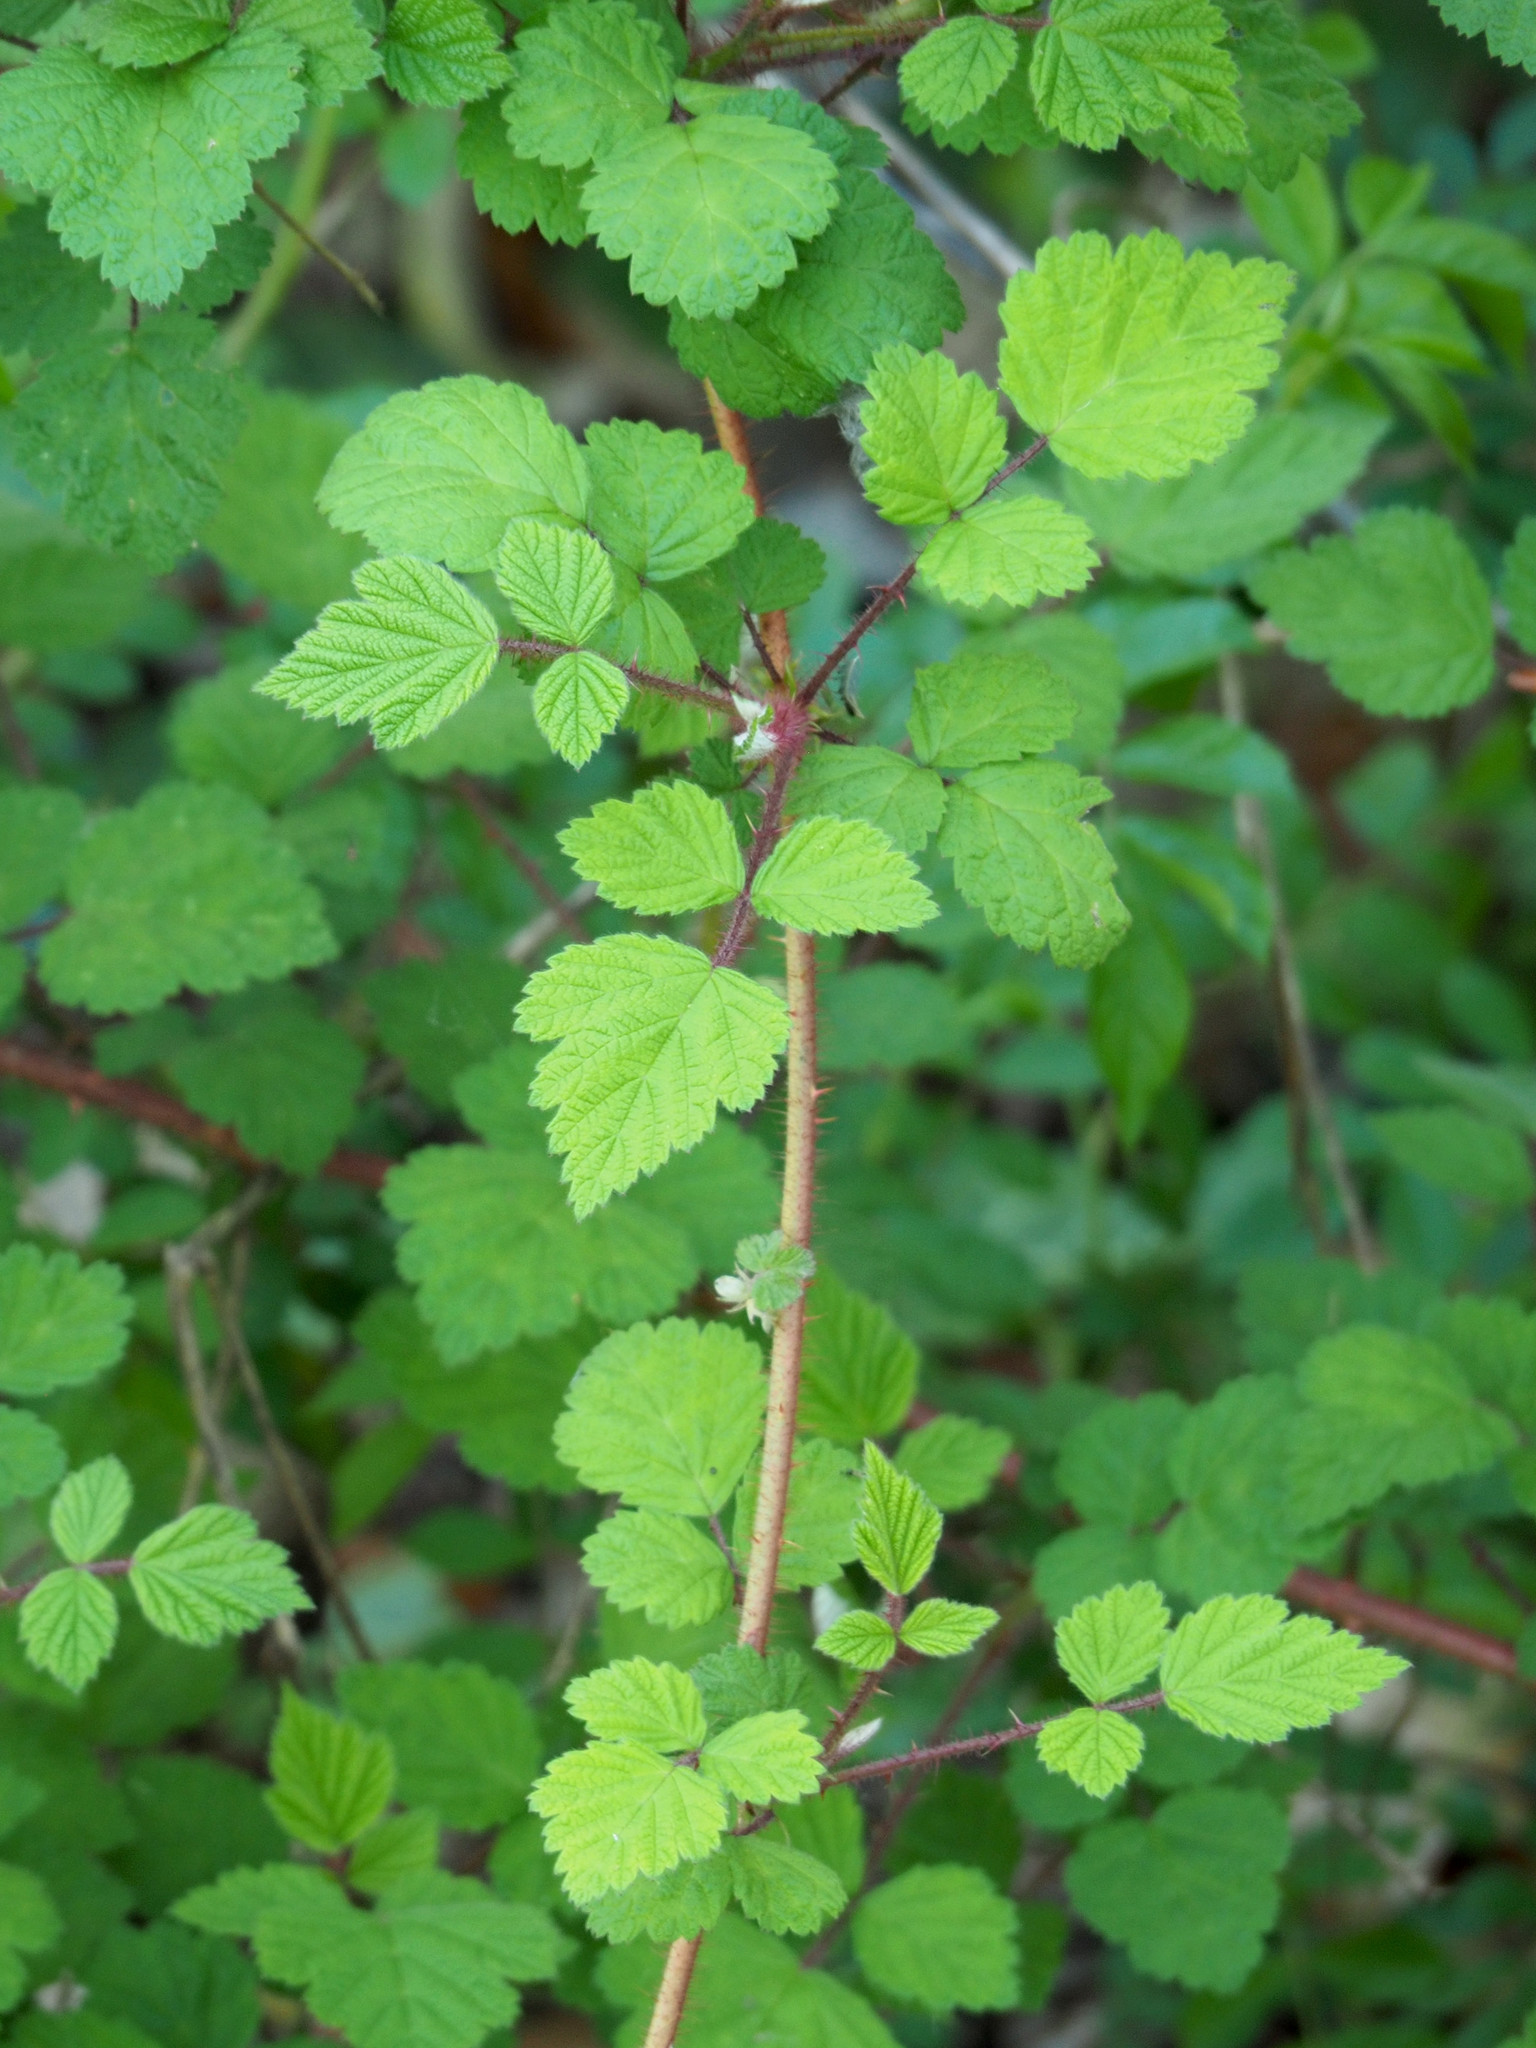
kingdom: Plantae
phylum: Tracheophyta
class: Magnoliopsida
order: Rosales
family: Rosaceae
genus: Rubus
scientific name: Rubus phoenicolasius
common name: Japanese wineberry
